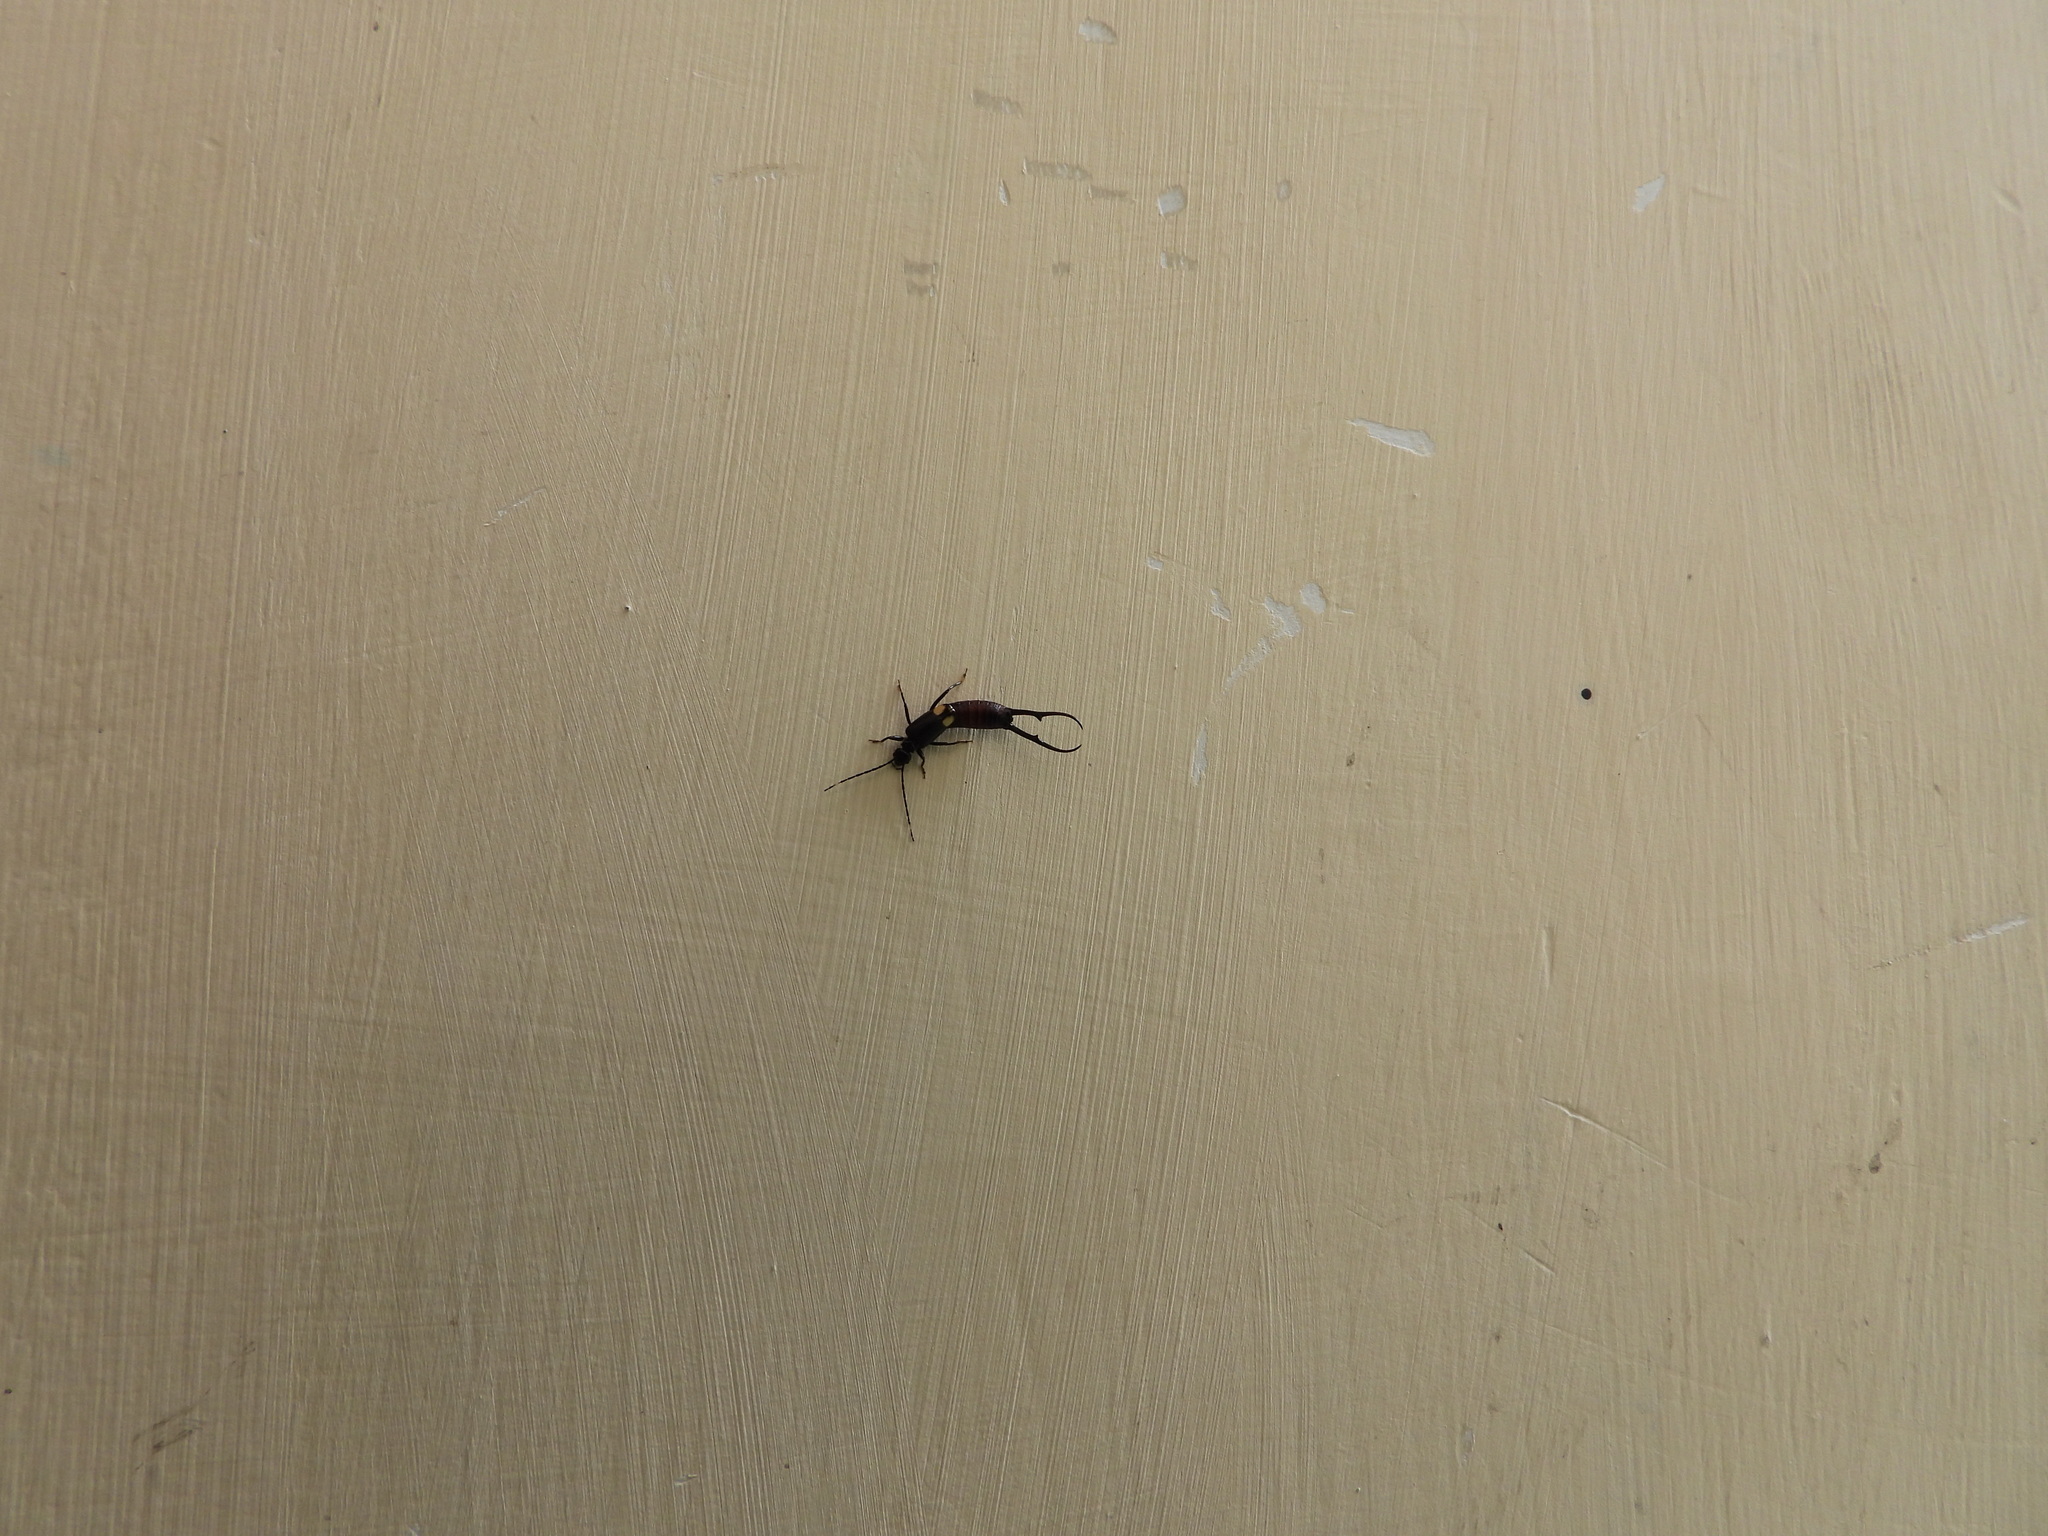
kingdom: Animalia
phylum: Arthropoda
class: Insecta
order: Dermaptera
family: Forficulidae
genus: Pterygida
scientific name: Pterygida gracilis
